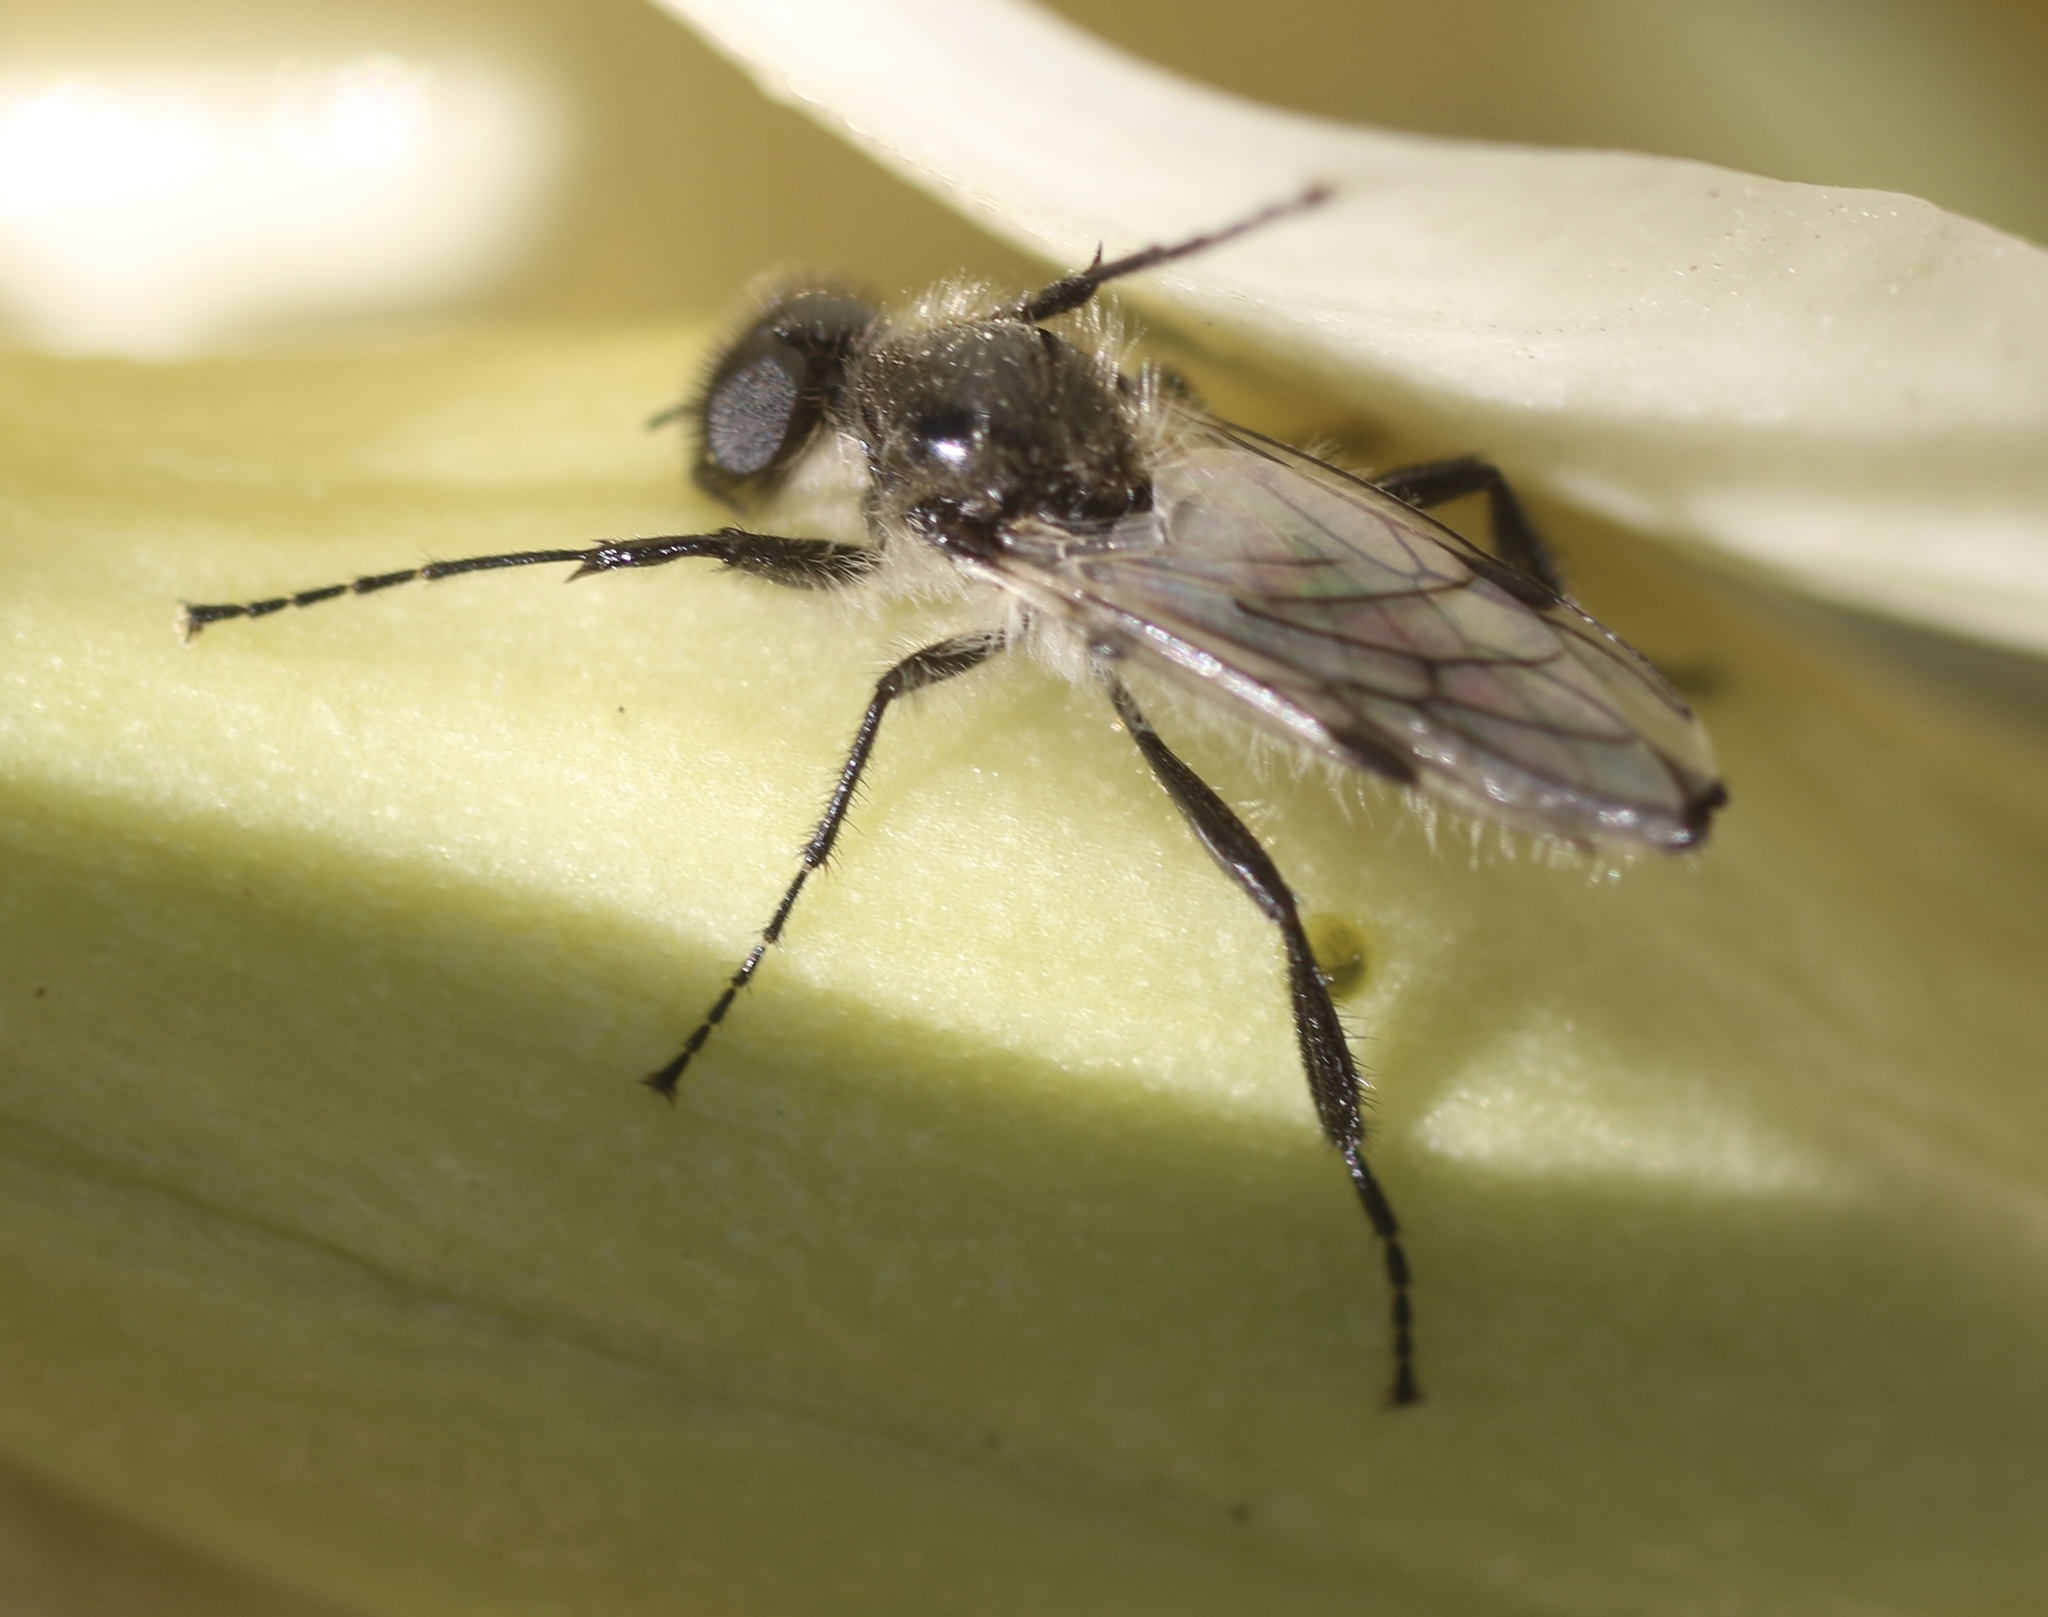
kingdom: Animalia
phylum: Arthropoda
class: Insecta
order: Diptera
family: Bibionidae
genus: Bibio
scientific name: Bibio albipennis
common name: White-winged march fly
